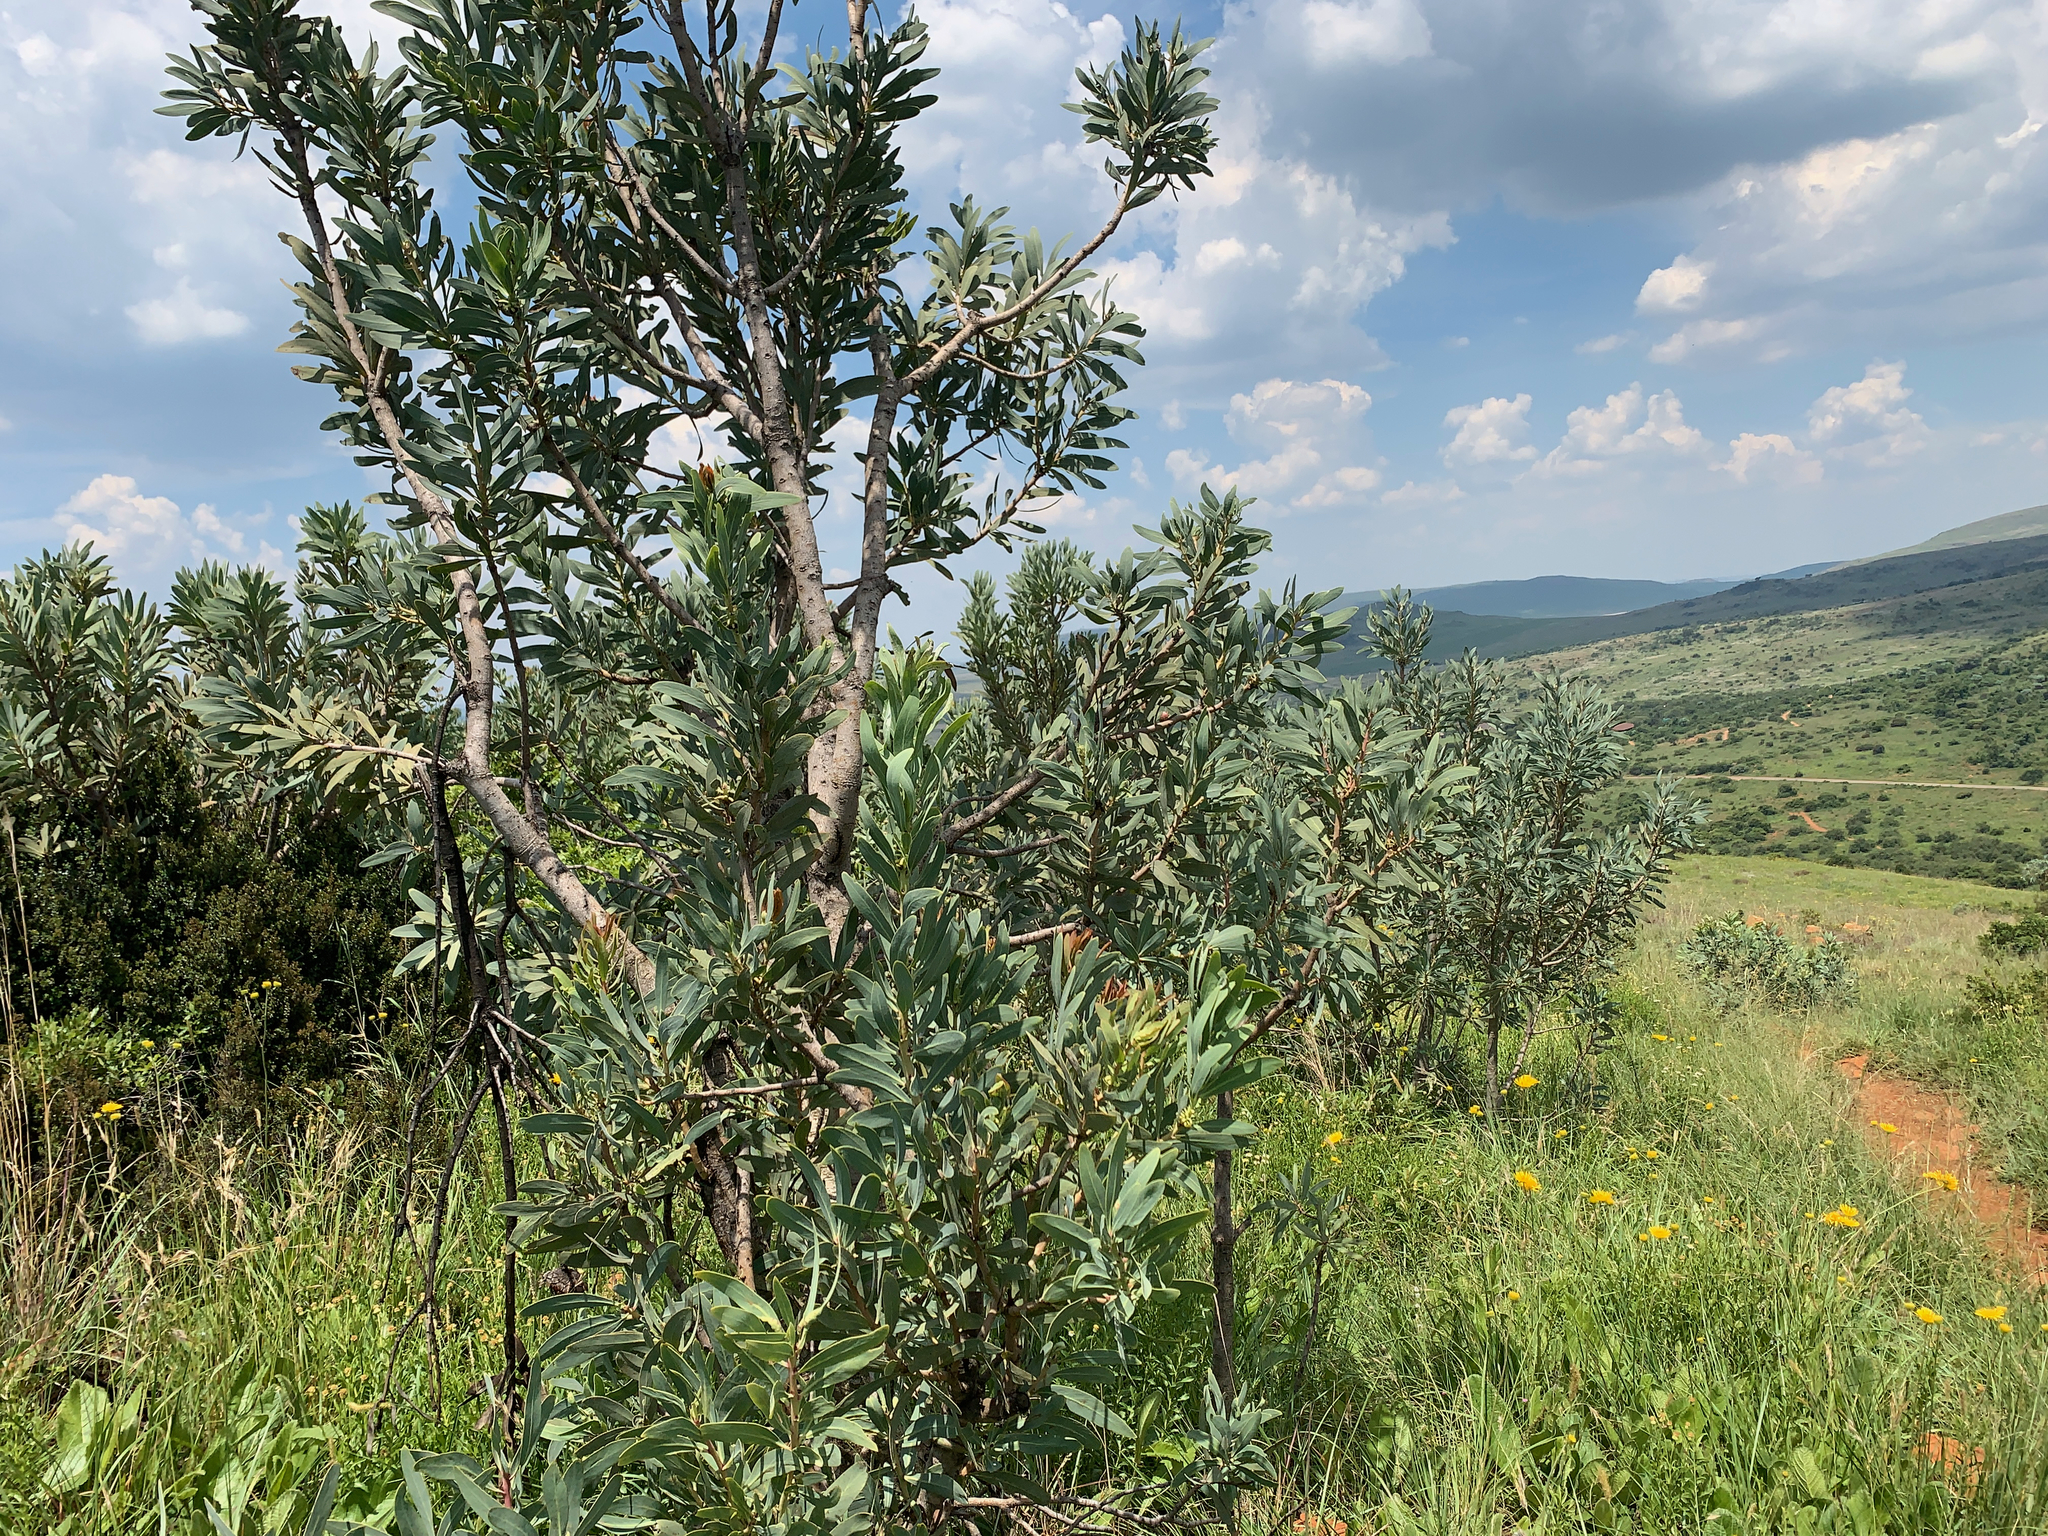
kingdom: Plantae
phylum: Tracheophyta
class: Magnoliopsida
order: Proteales
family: Proteaceae
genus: Protea
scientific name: Protea caffra
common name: Common sugarbush
